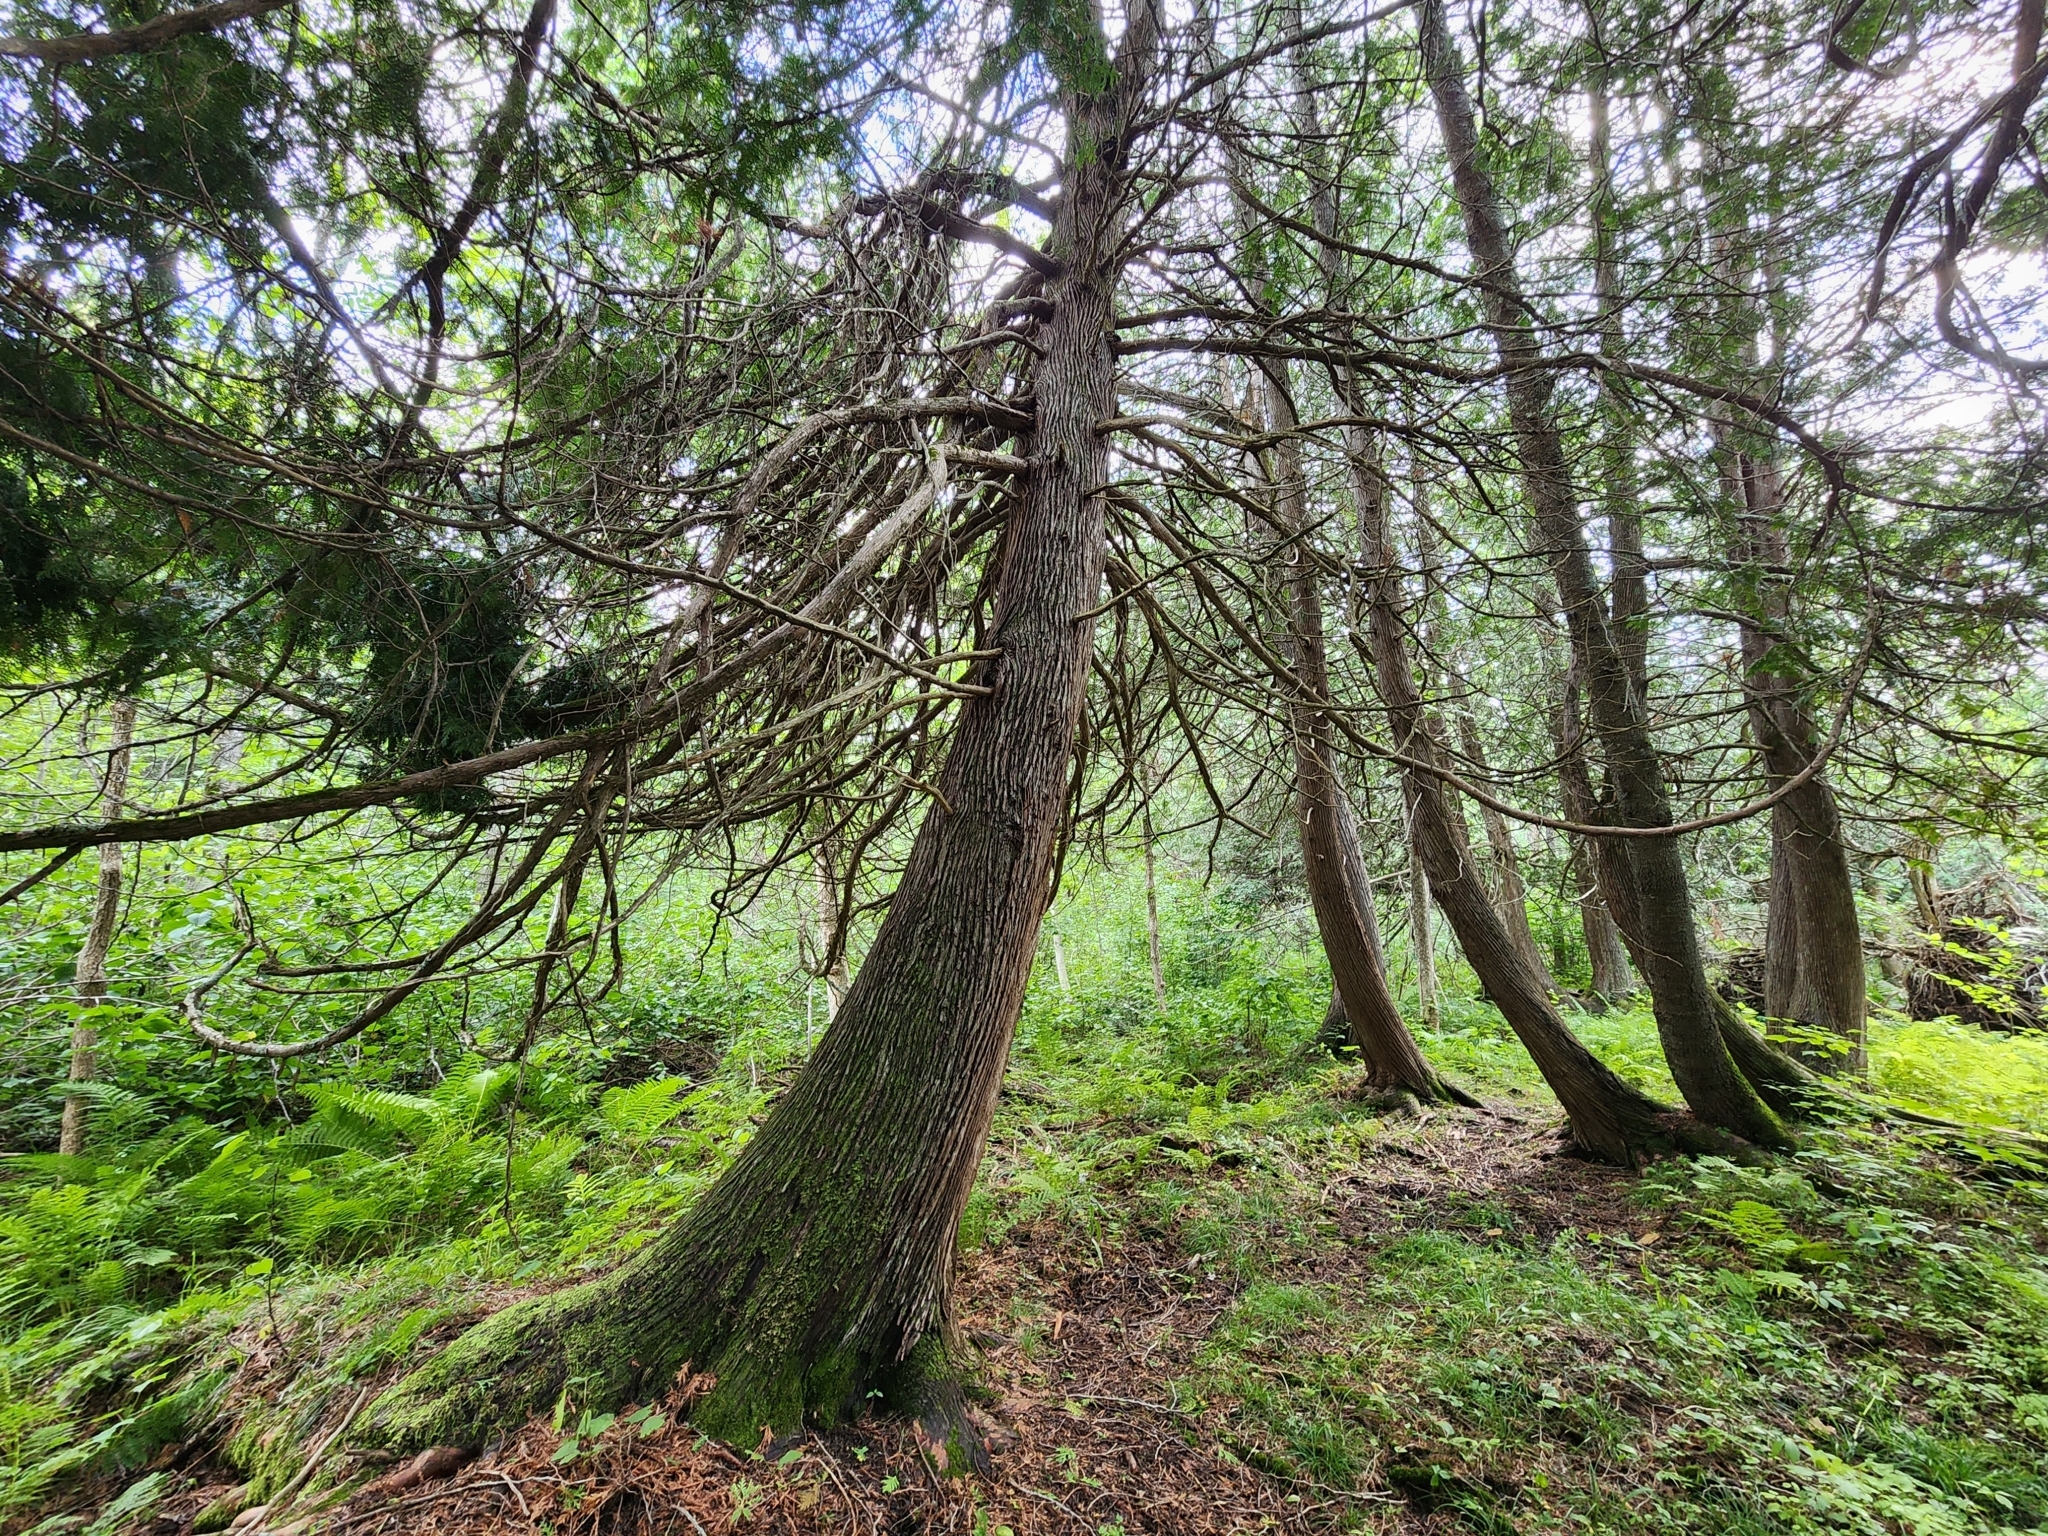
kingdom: Plantae
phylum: Tracheophyta
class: Pinopsida
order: Pinales
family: Cupressaceae
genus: Thuja
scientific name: Thuja occidentalis
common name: Northern white-cedar
